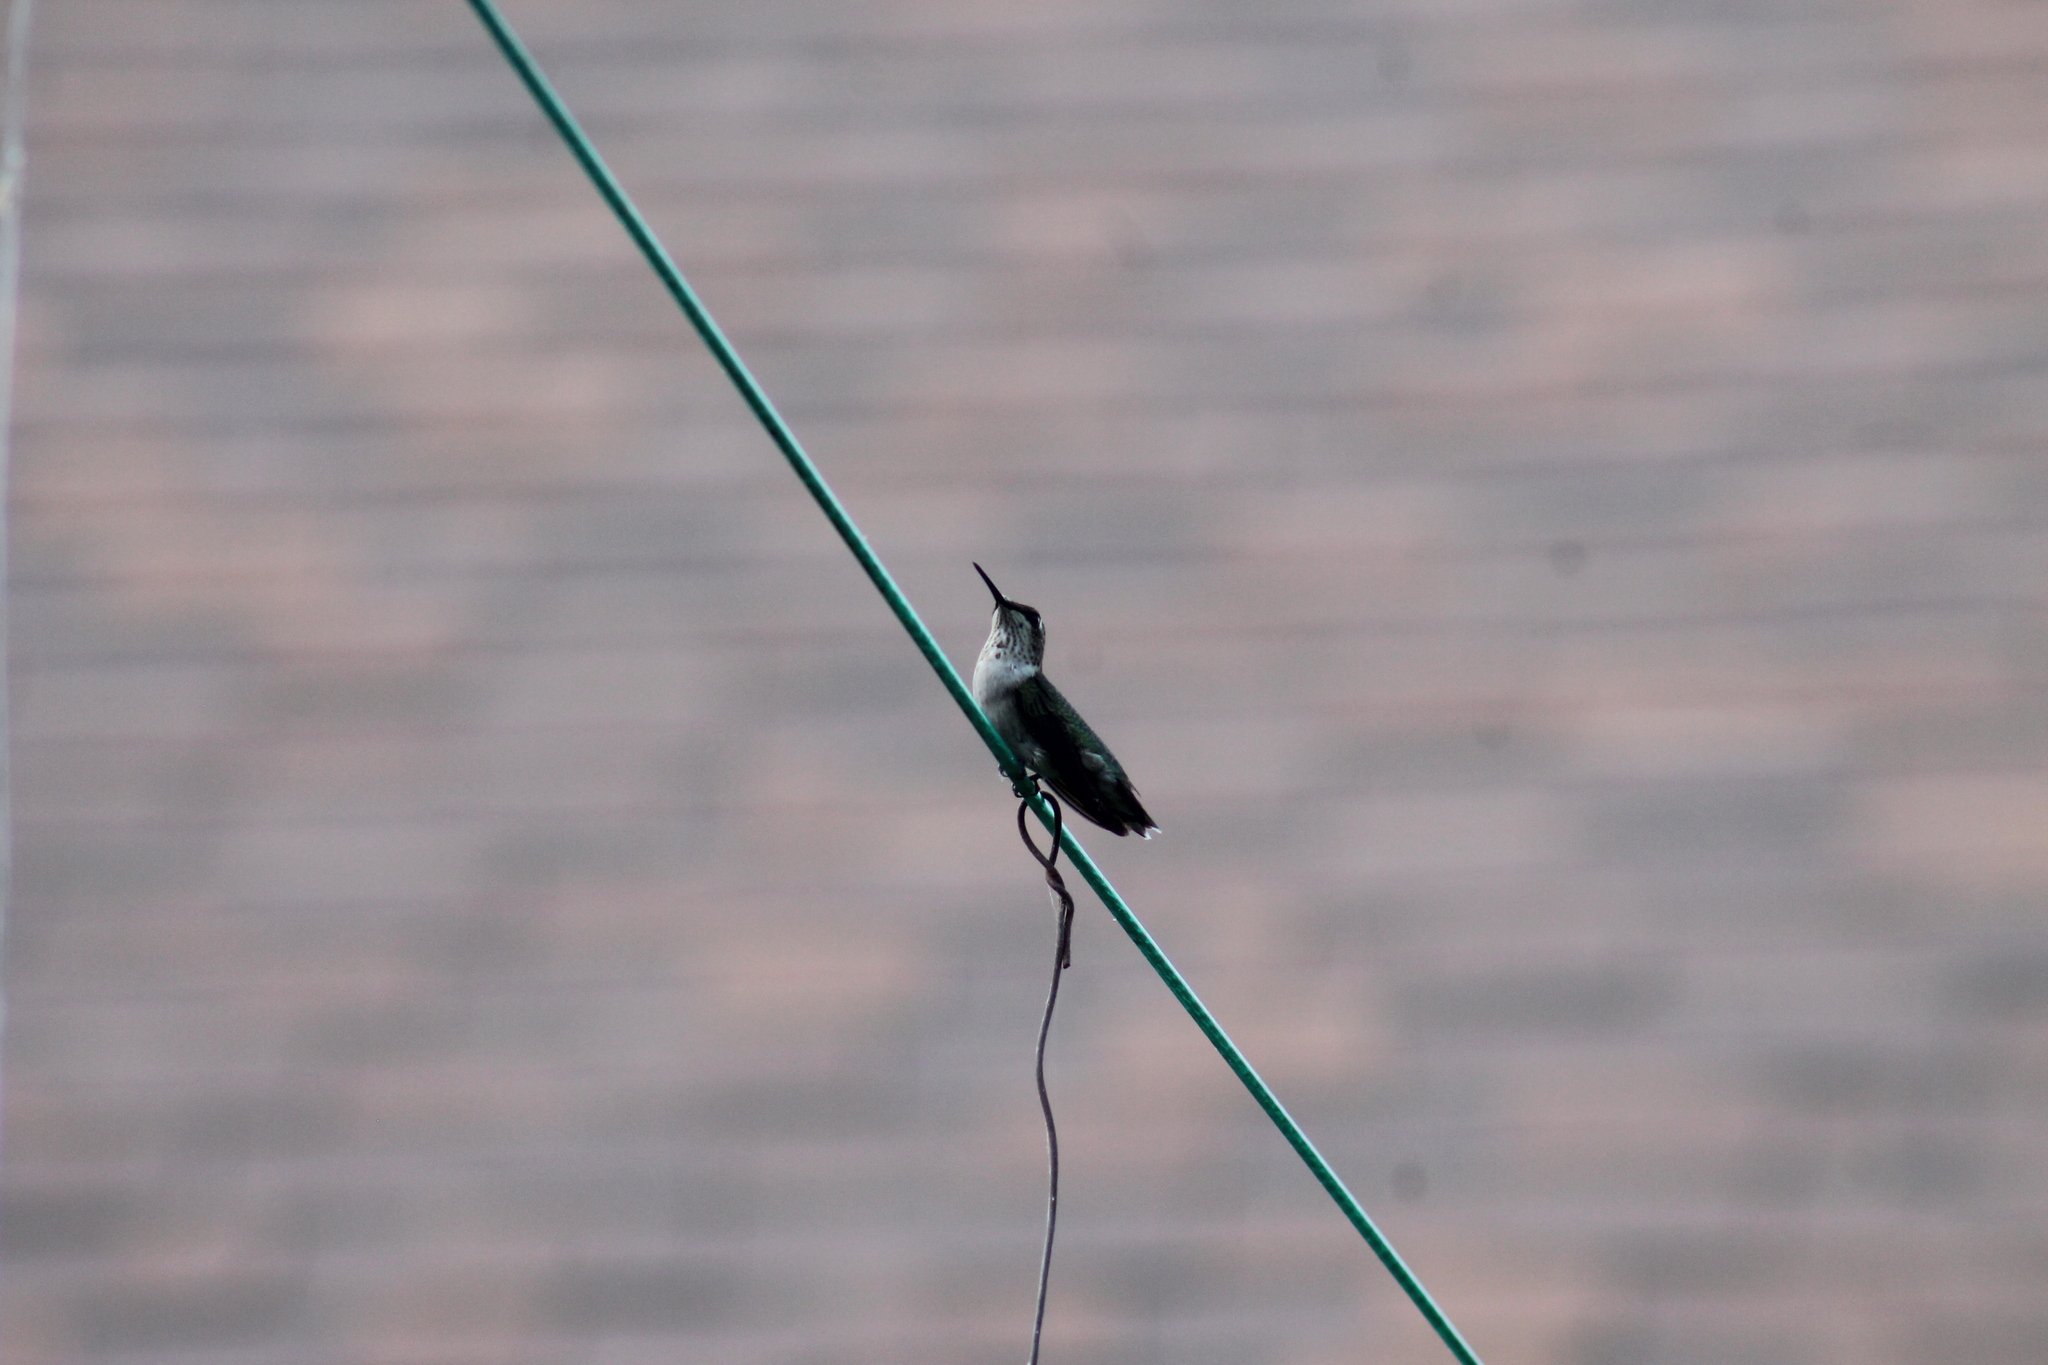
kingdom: Animalia
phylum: Chordata
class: Aves
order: Apodiformes
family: Trochilidae
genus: Archilochus
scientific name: Archilochus colubris
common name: Ruby-throated hummingbird
